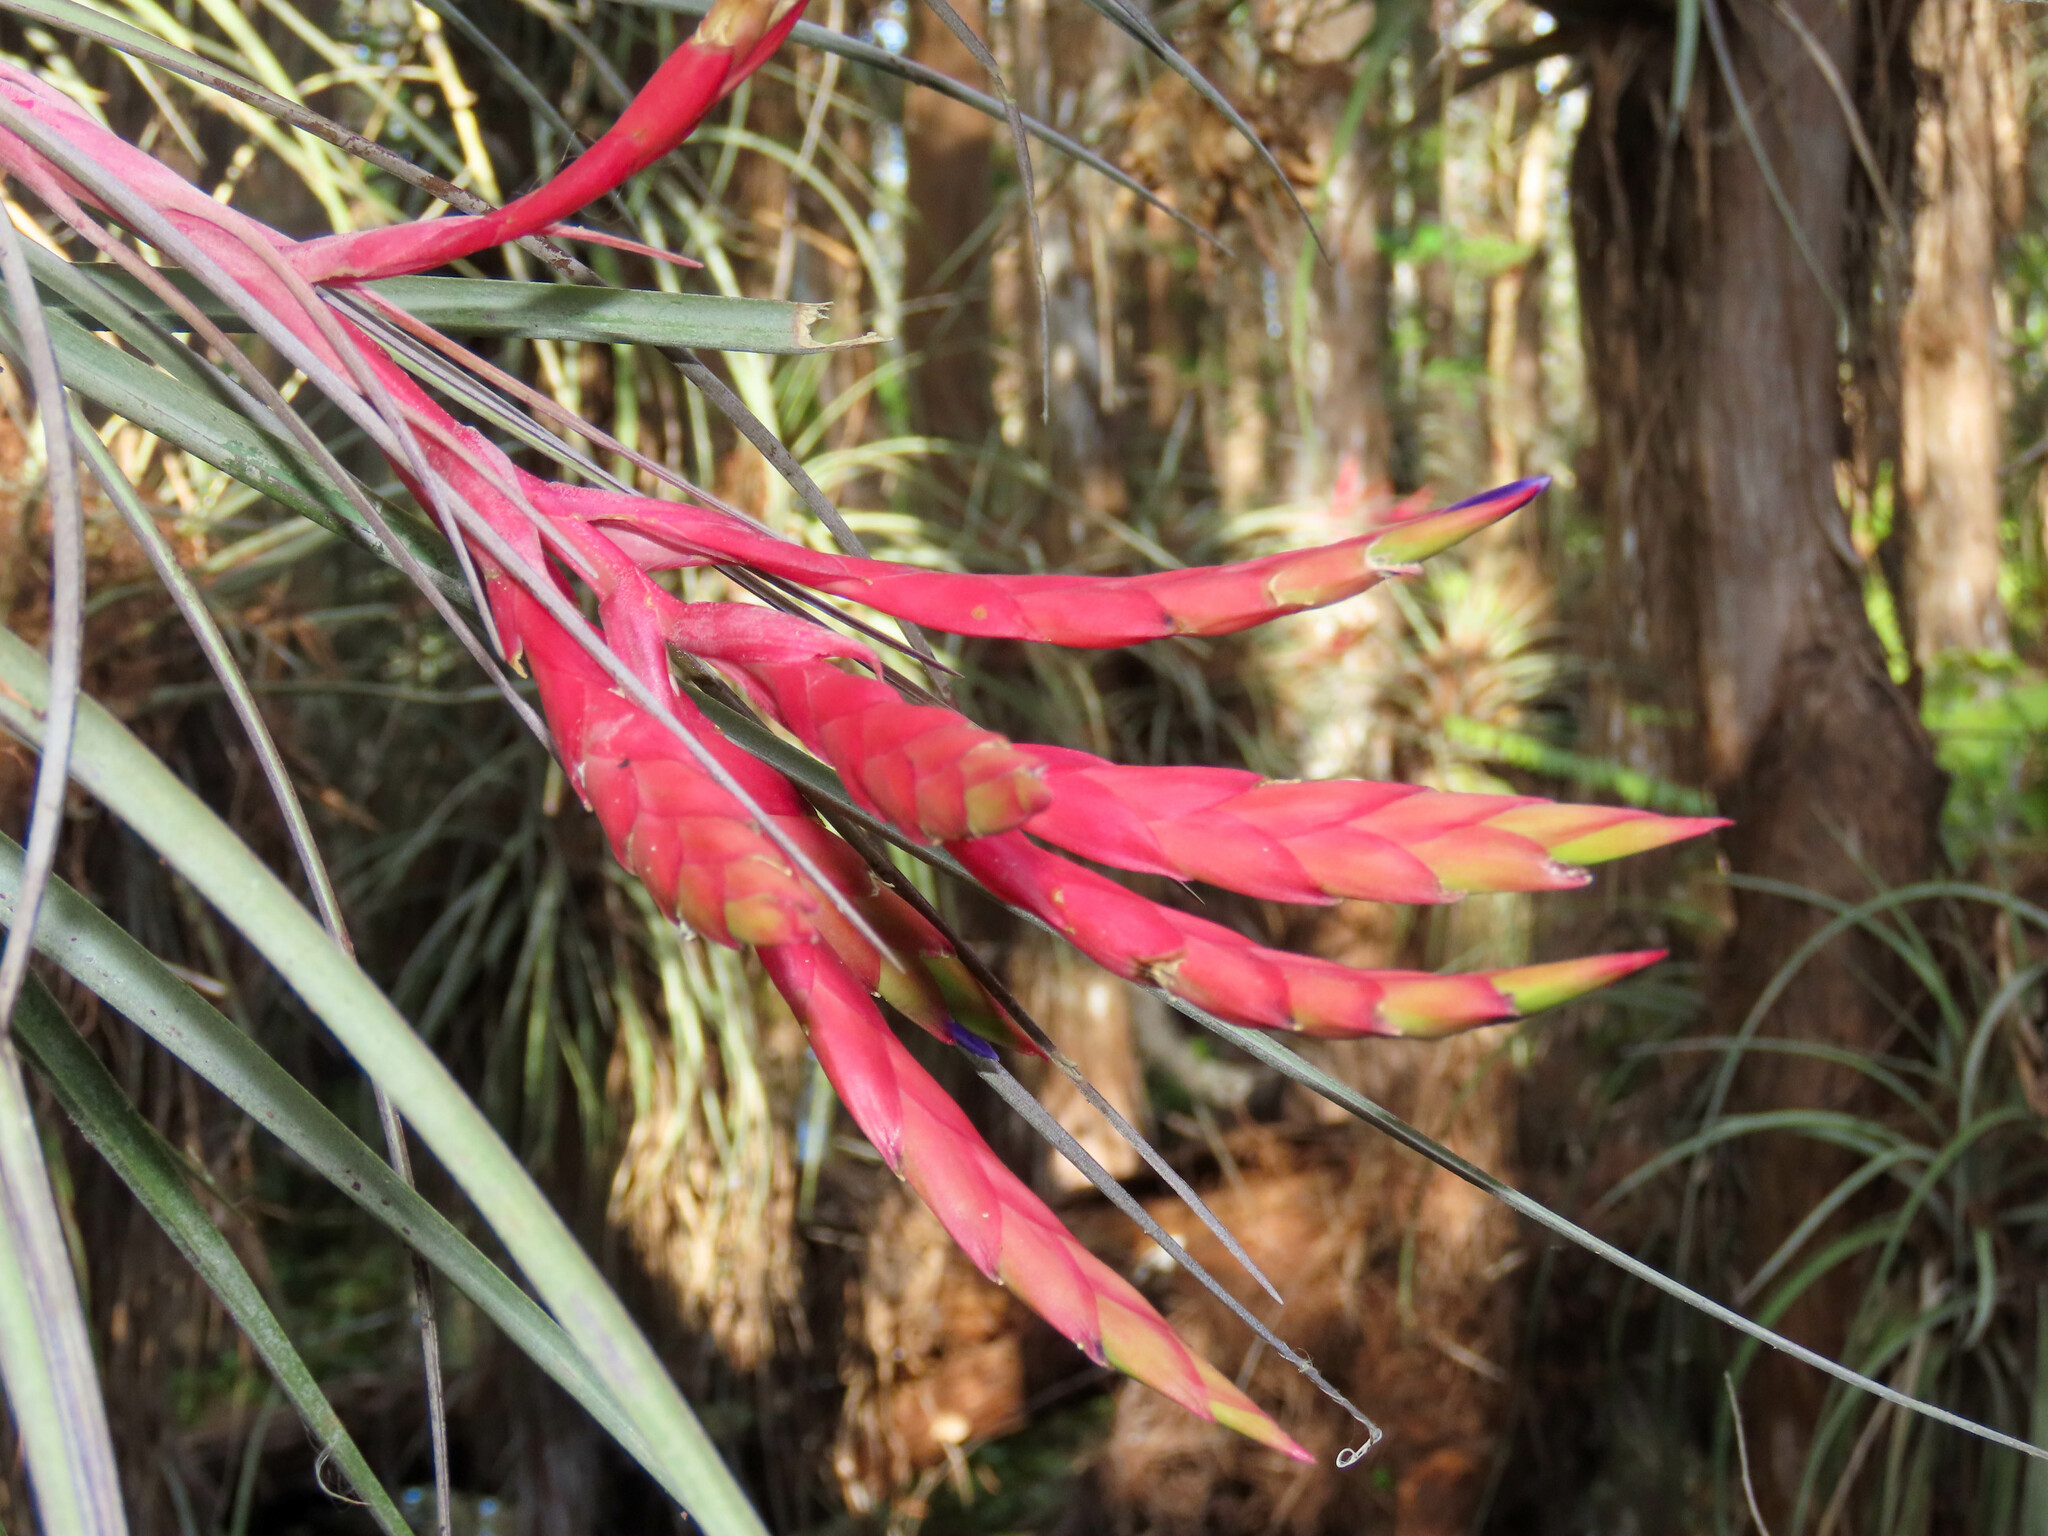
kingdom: Plantae
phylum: Tracheophyta
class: Liliopsida
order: Poales
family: Bromeliaceae
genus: Tillandsia
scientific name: Tillandsia fasciculata
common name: Giant airplant
